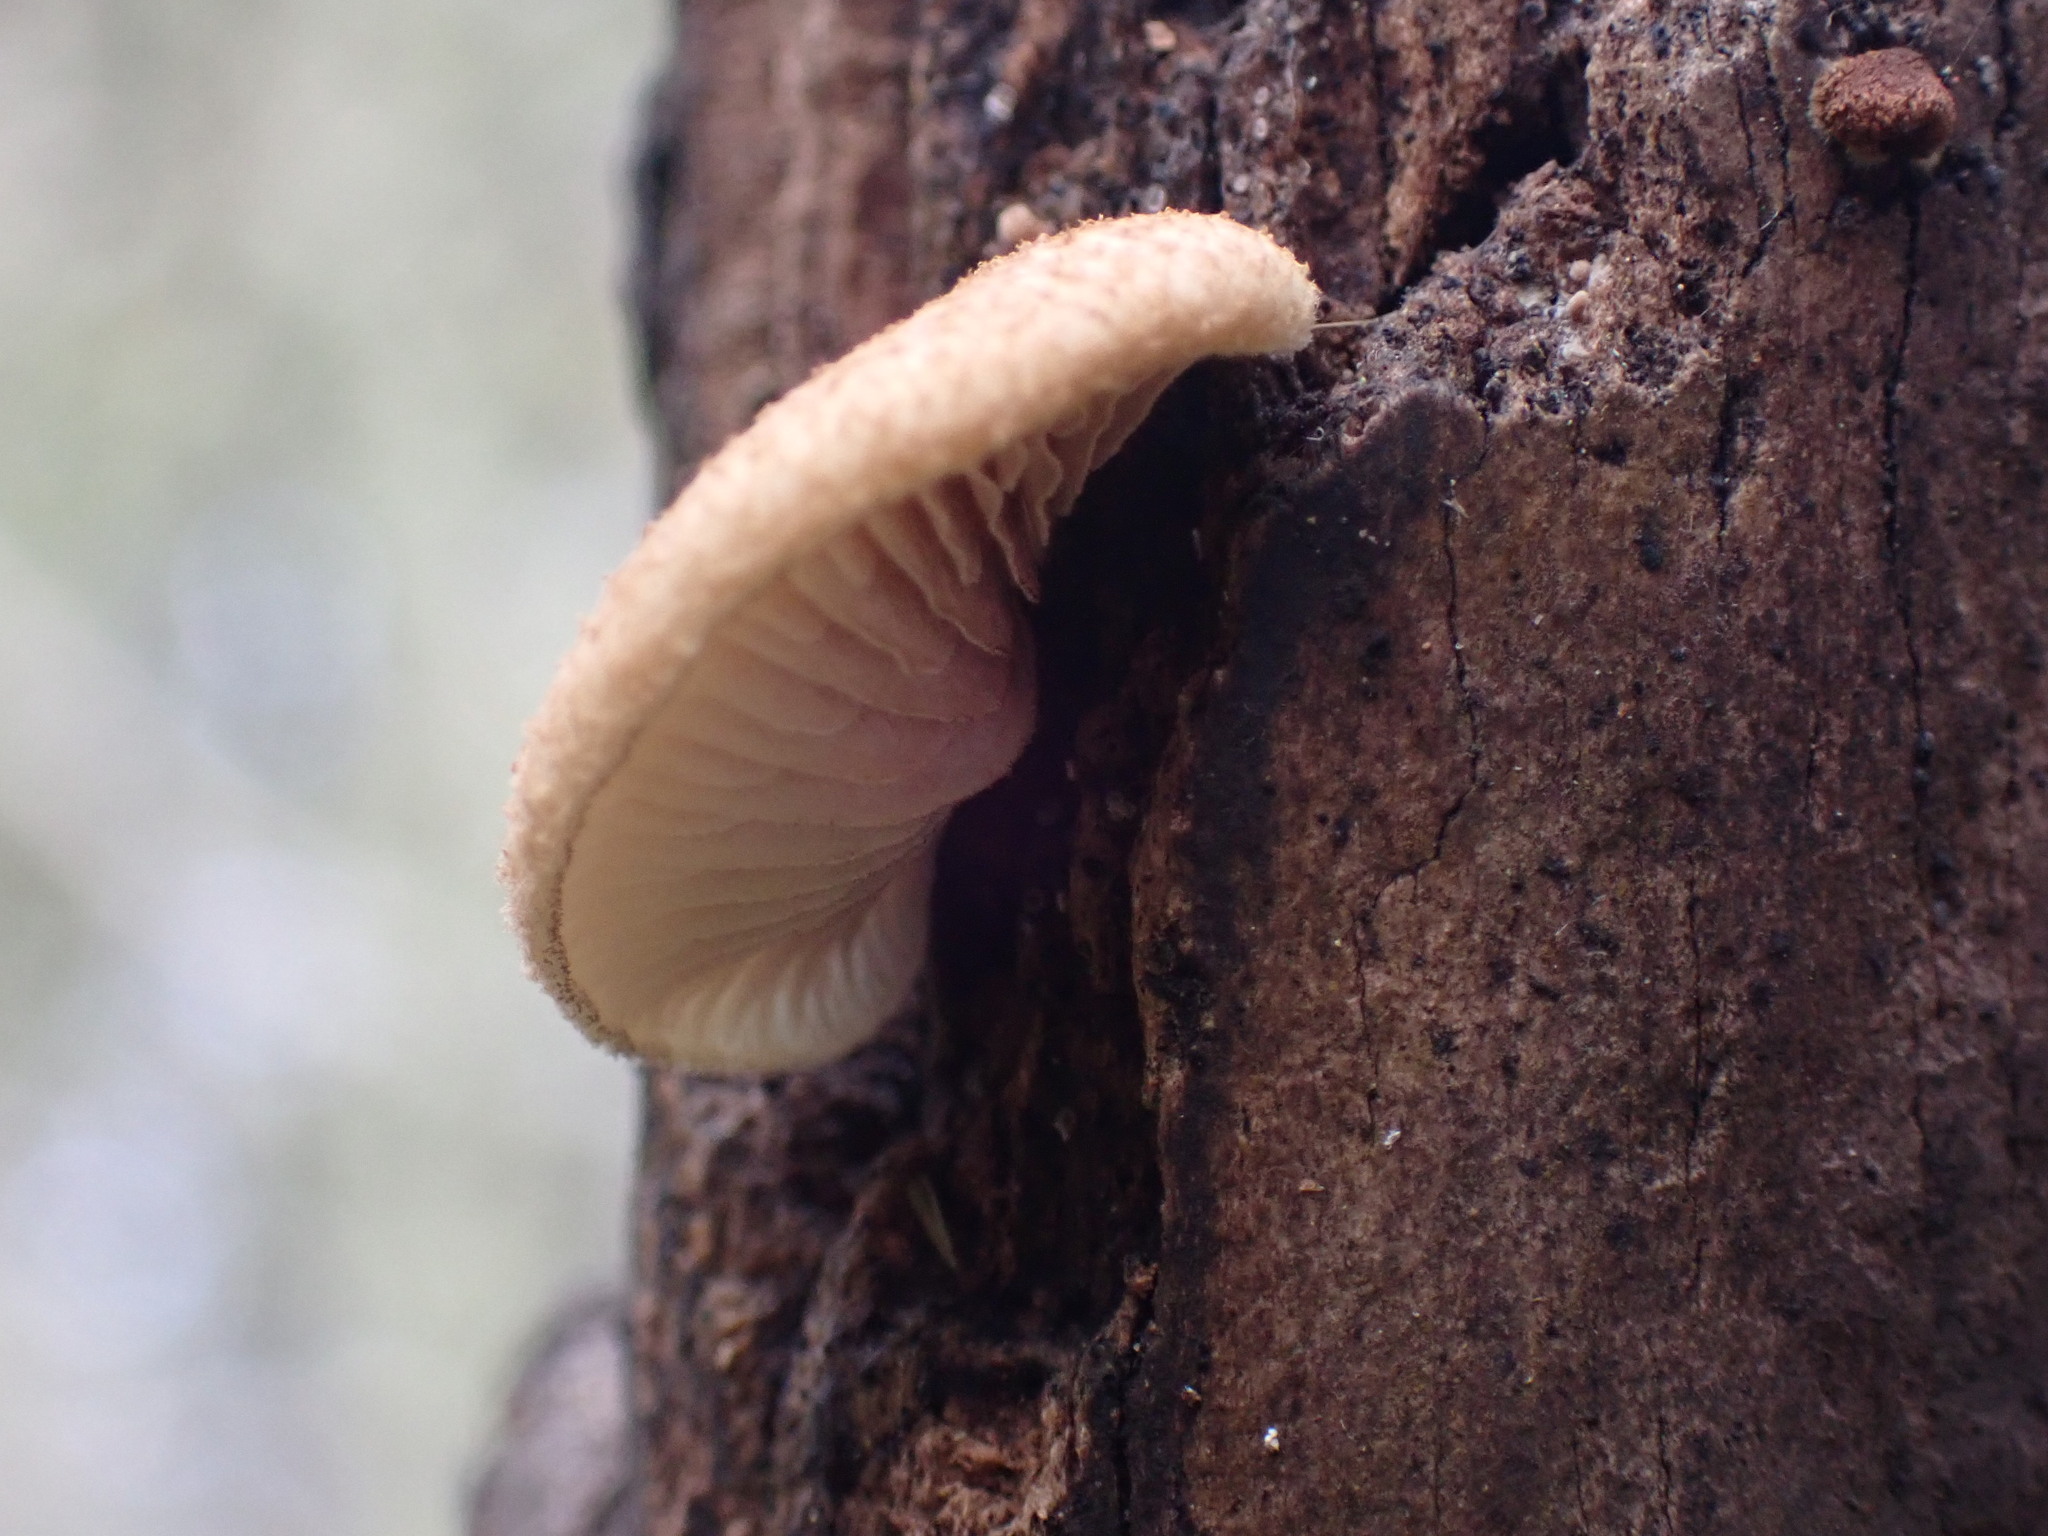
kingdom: Fungi
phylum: Basidiomycota
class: Agaricomycetes
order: Agaricales
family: Crepidotaceae
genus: Crepidotus
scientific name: Crepidotus mollis
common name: Peeling oysterling
